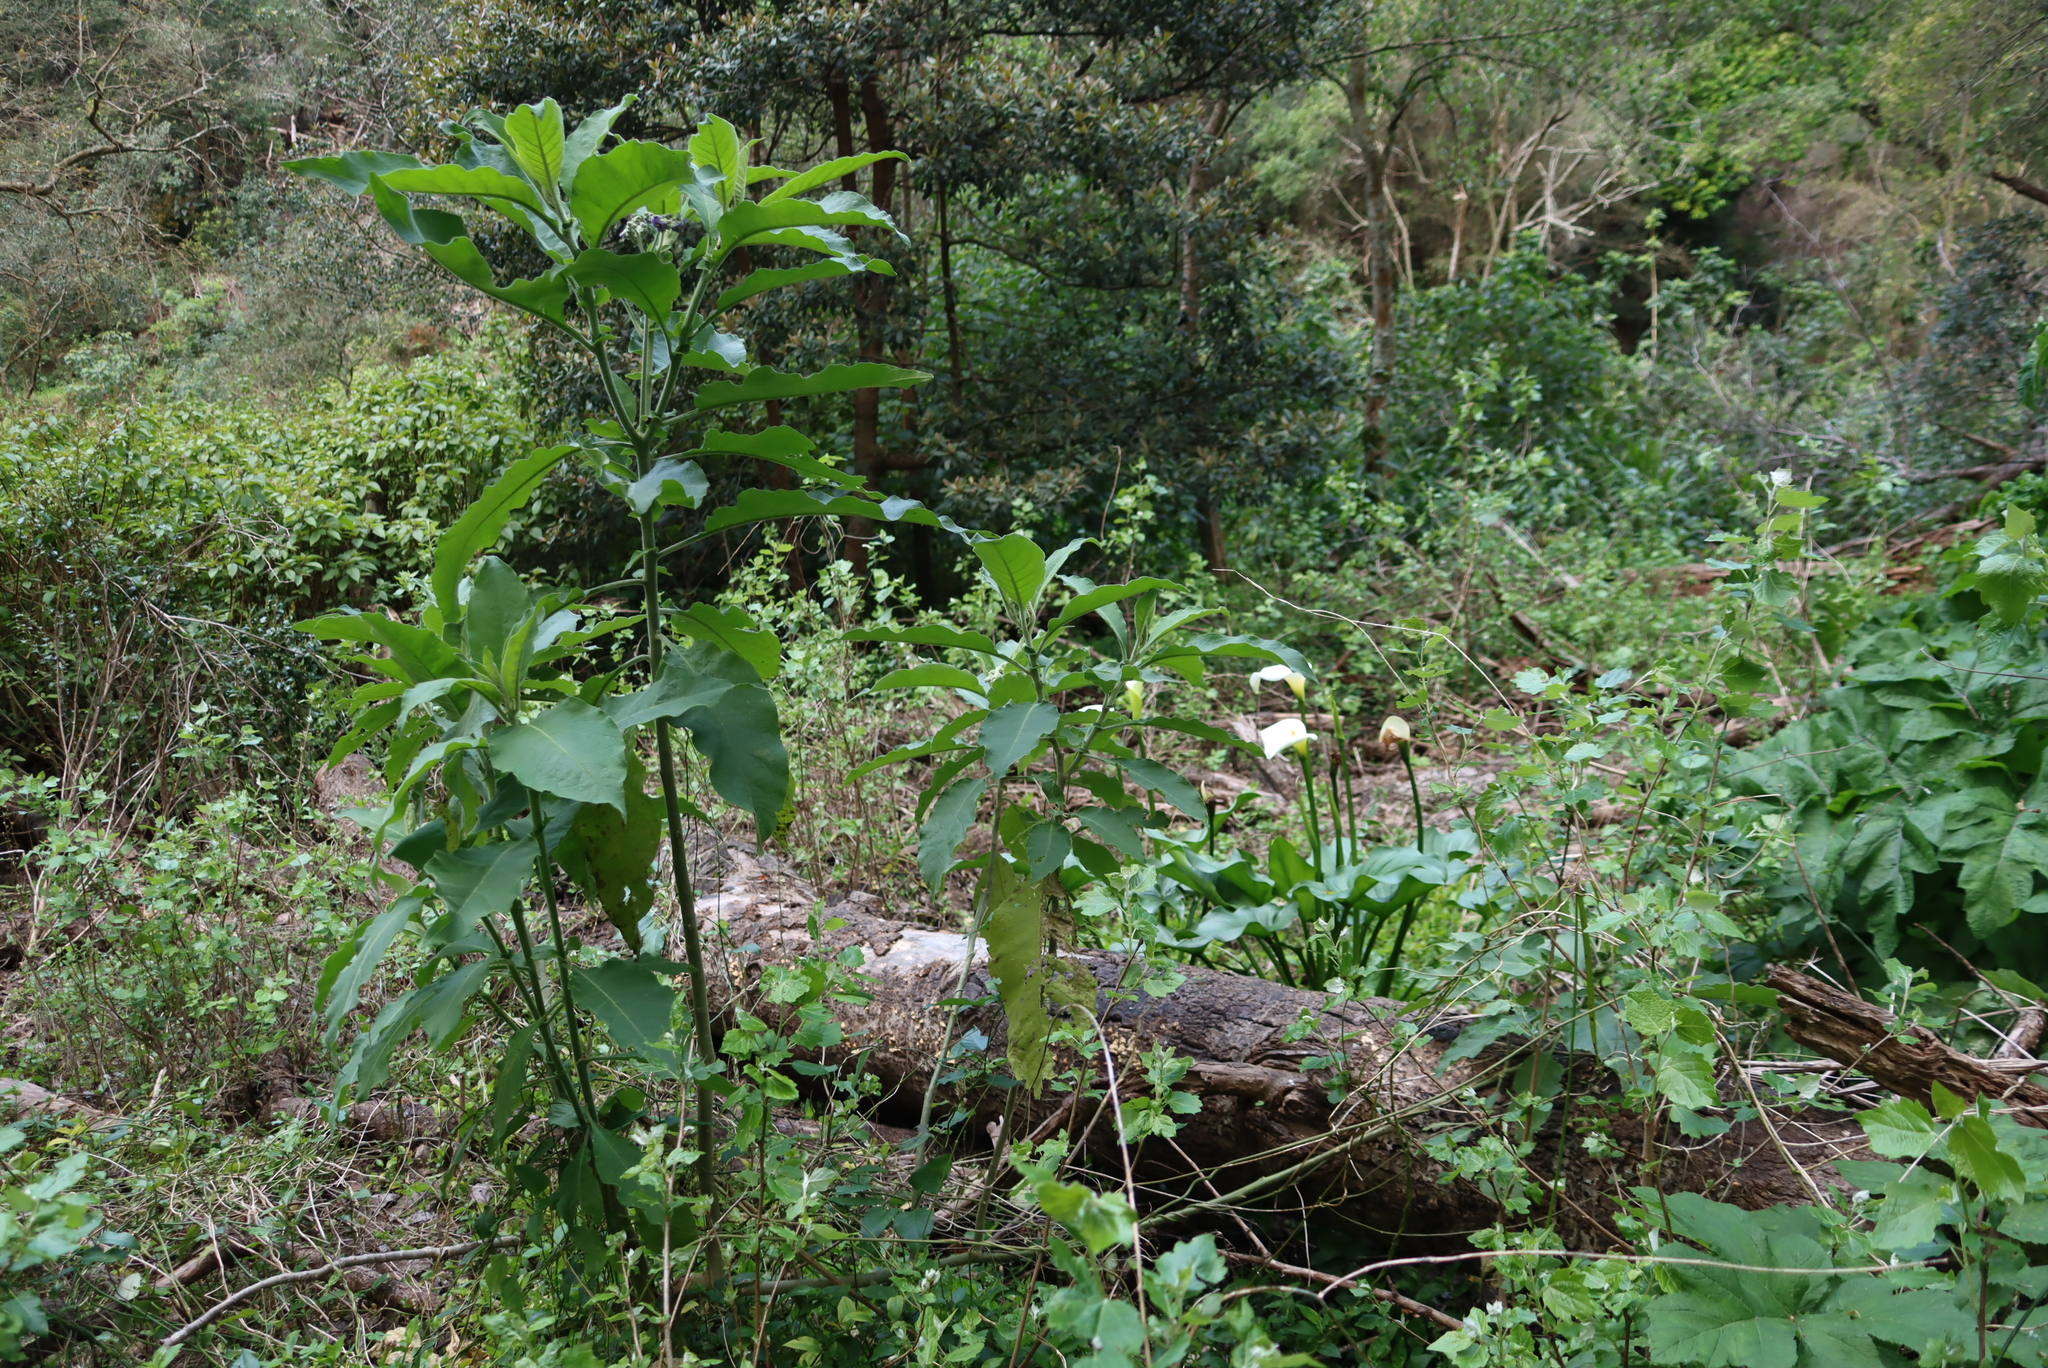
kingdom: Plantae
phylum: Tracheophyta
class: Magnoliopsida
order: Solanales
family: Solanaceae
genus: Solanum
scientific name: Solanum mauritianum
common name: Earleaf nightshade
